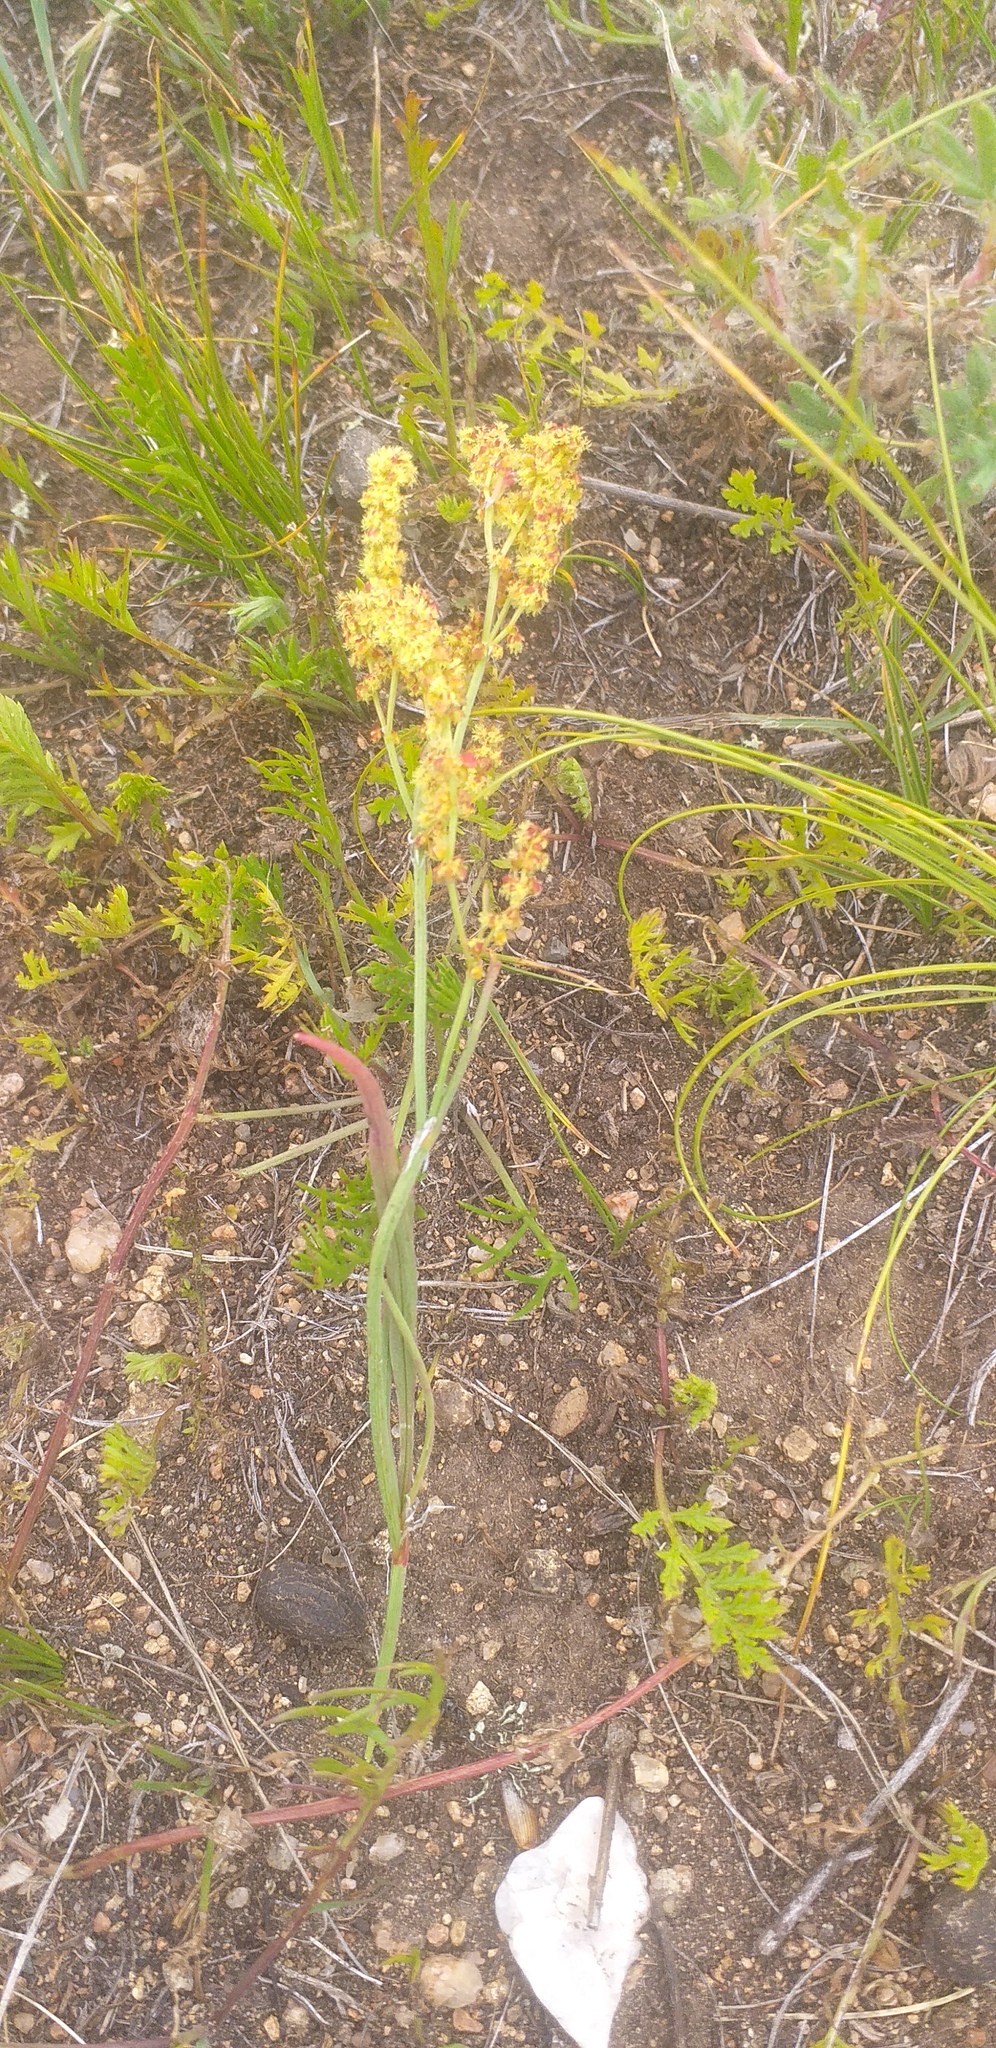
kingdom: Plantae
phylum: Tracheophyta
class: Magnoliopsida
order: Caryophyllales
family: Polygonaceae
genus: Rumex
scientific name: Rumex gmelinii
